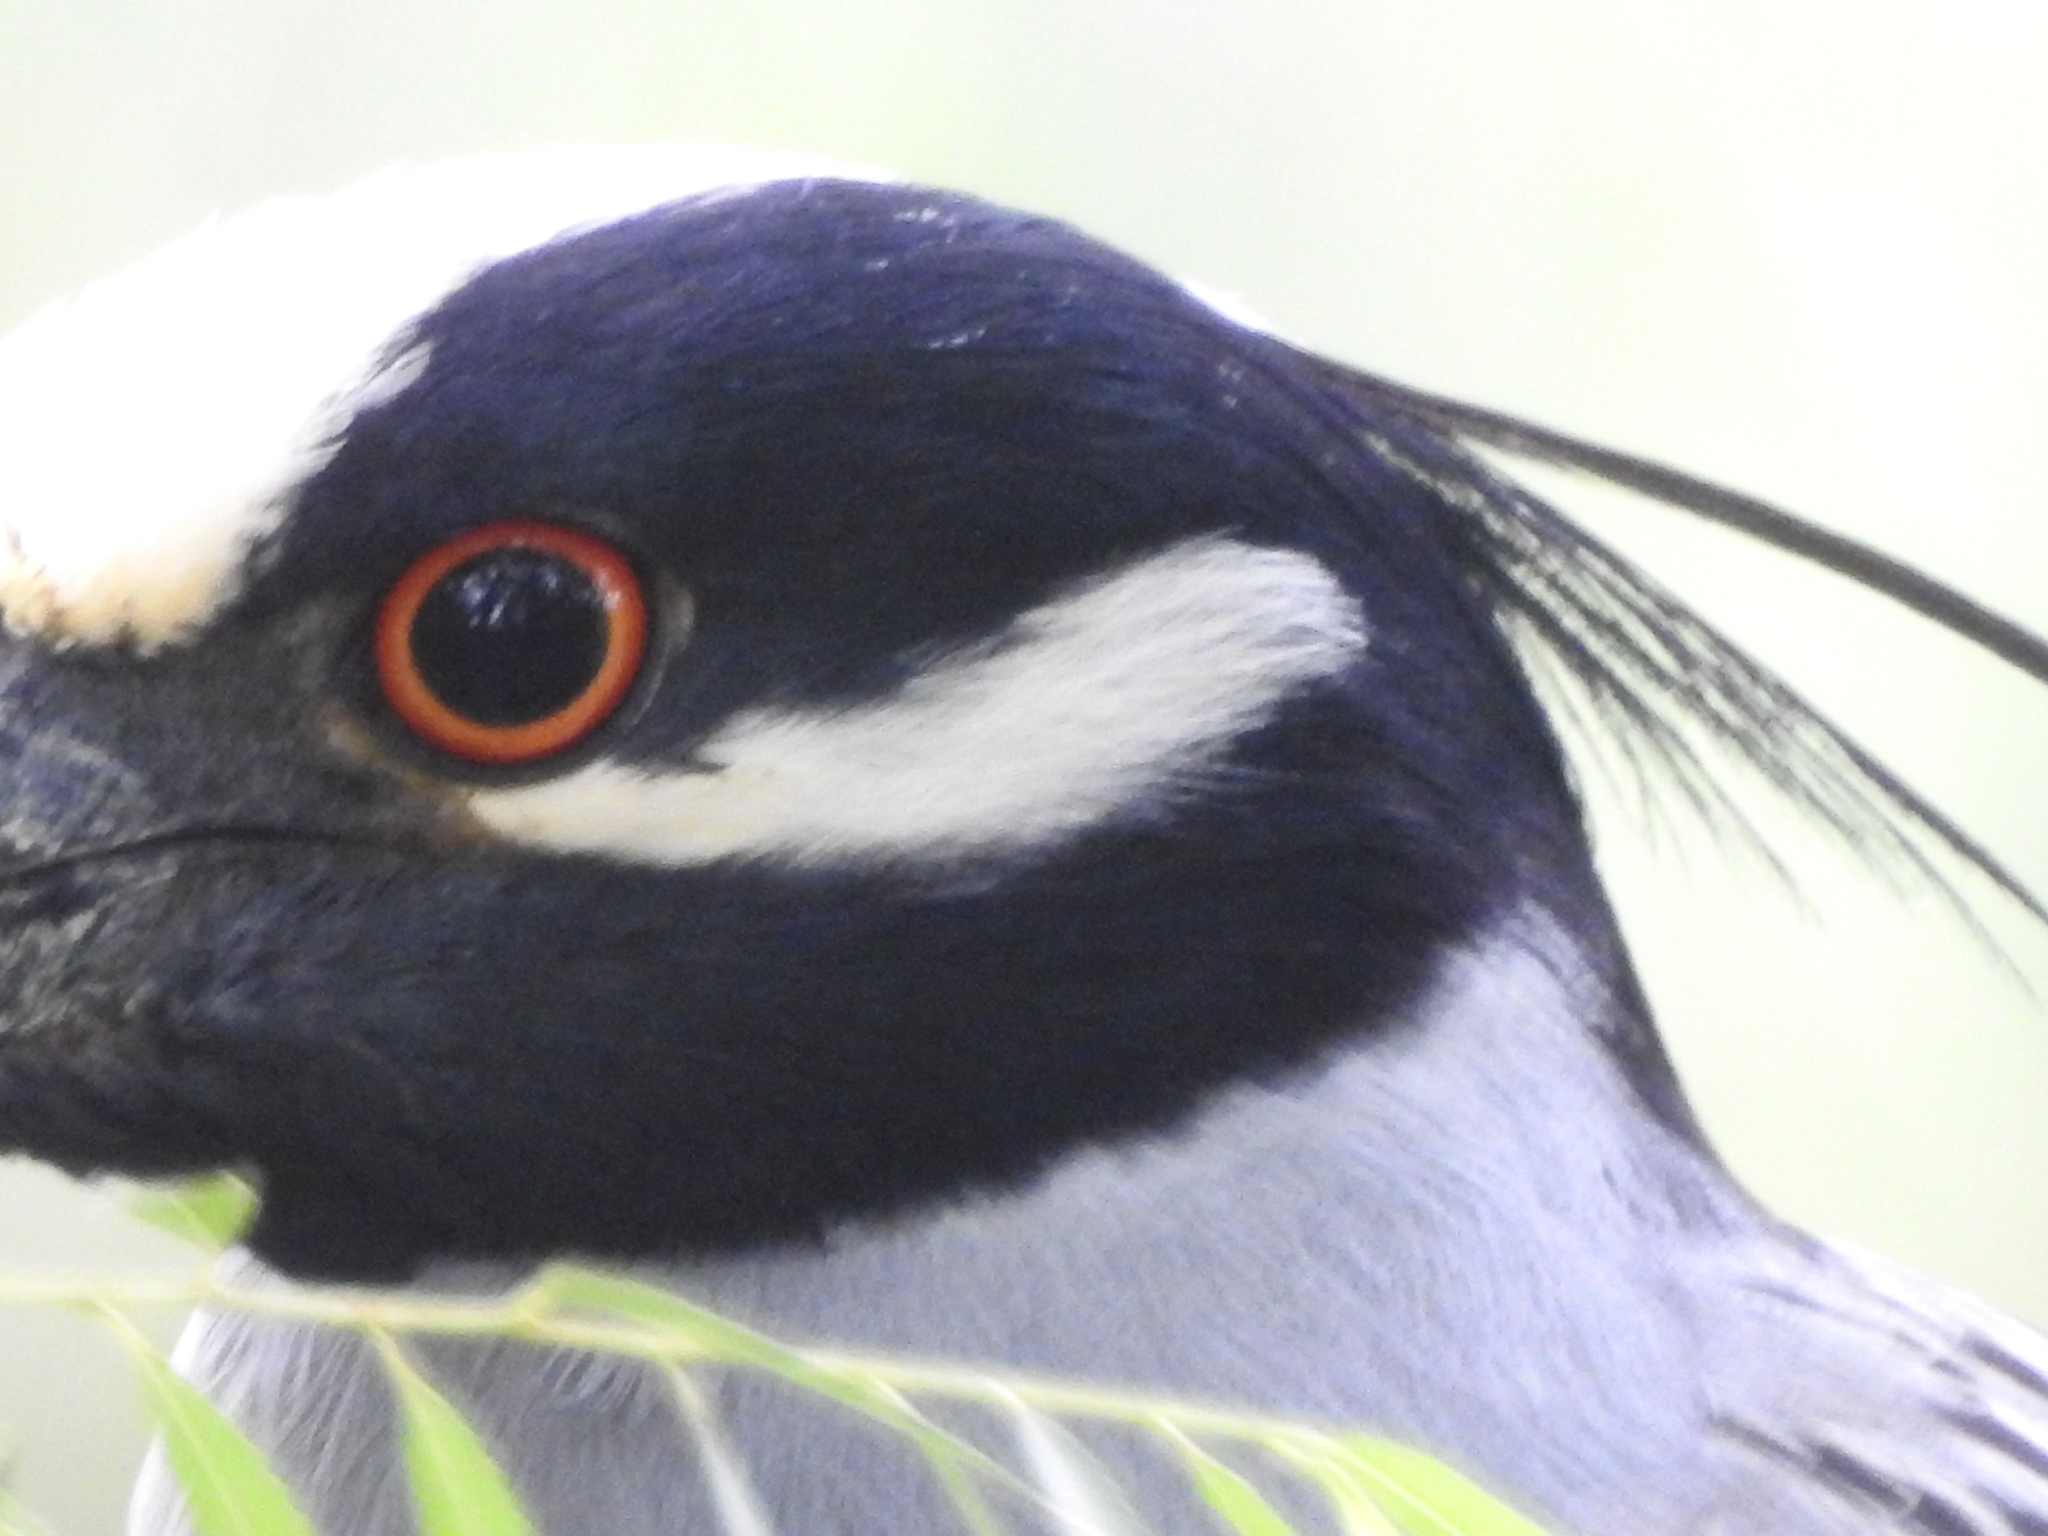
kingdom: Animalia
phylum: Chordata
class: Aves
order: Pelecaniformes
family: Ardeidae
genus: Nyctanassa
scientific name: Nyctanassa violacea
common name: Yellow-crowned night heron
